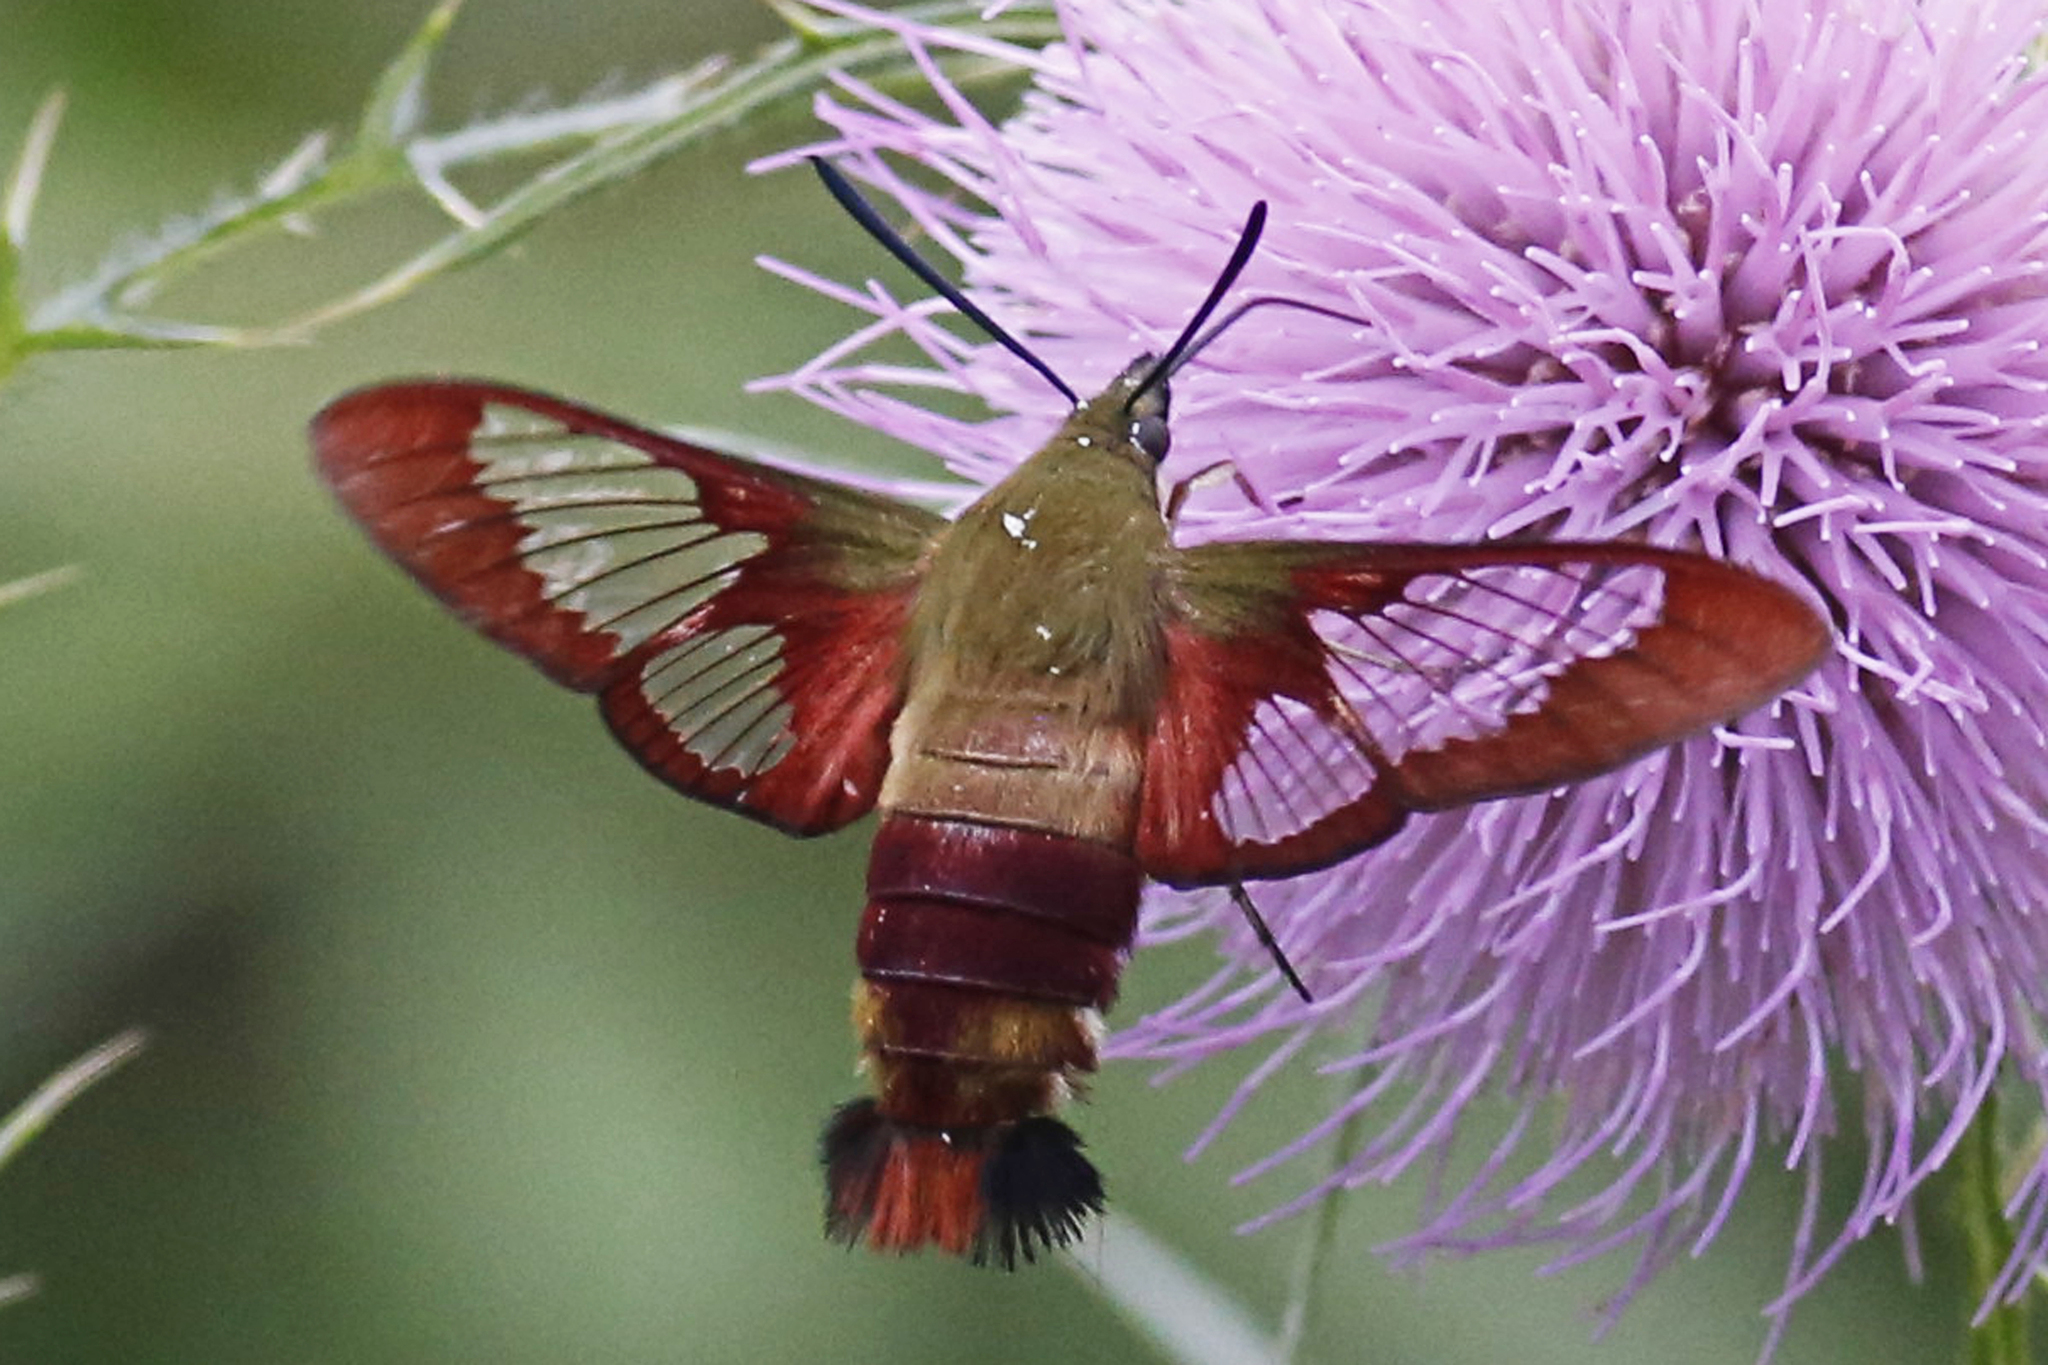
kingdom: Animalia
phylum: Arthropoda
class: Insecta
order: Lepidoptera
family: Sphingidae
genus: Hemaris
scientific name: Hemaris thysbe
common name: Common clear-wing
